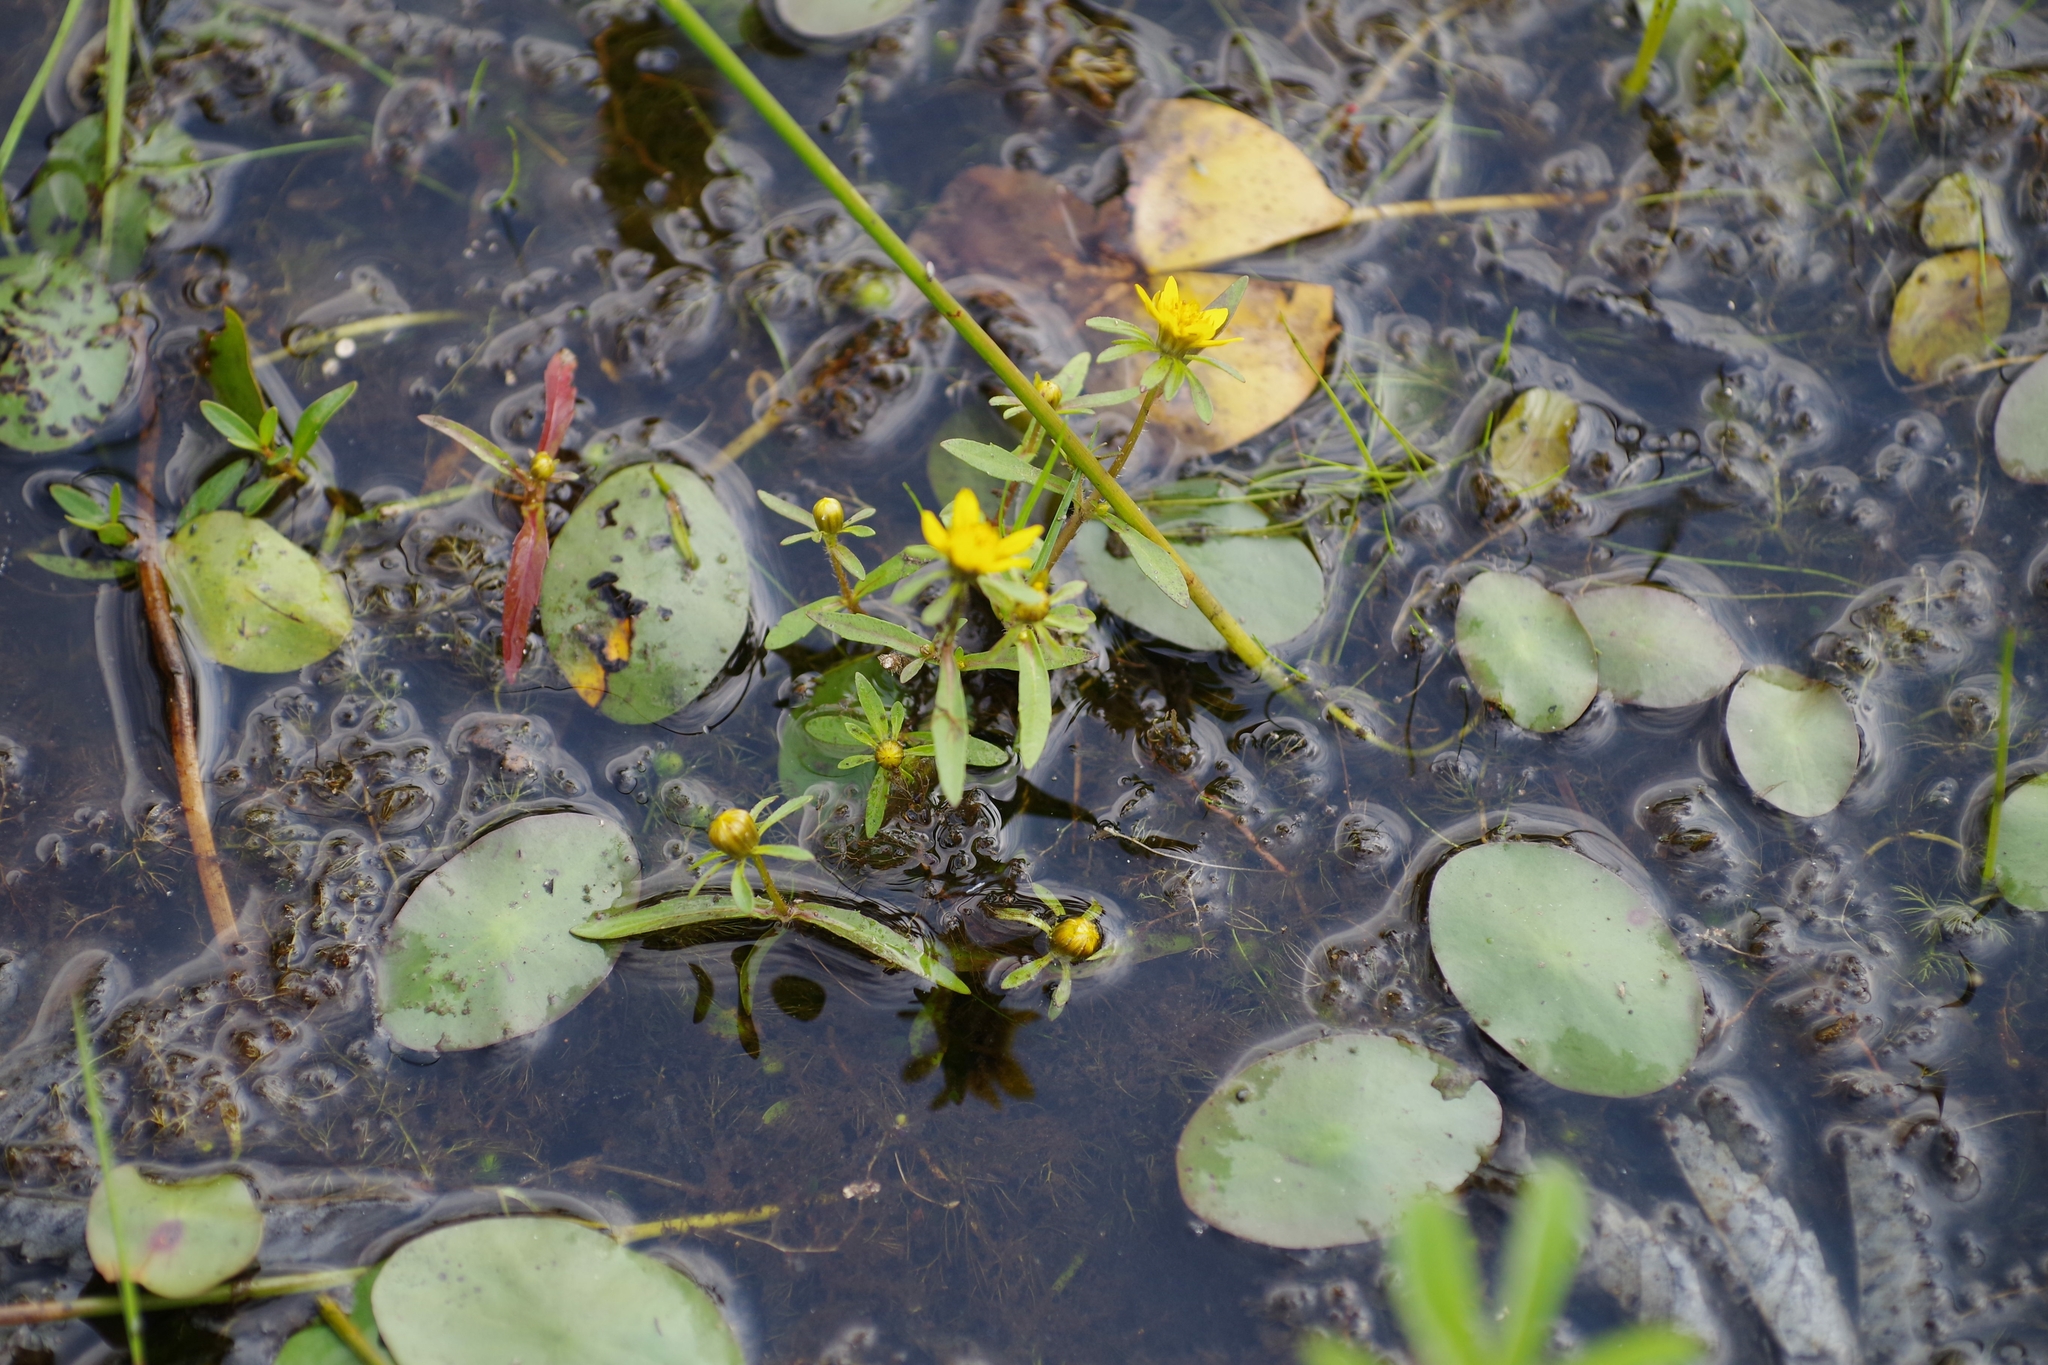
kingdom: Plantae
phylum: Tracheophyta
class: Magnoliopsida
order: Asterales
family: Asteraceae
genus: Bidens
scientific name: Bidens beckii
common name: Beck's beggarticks
